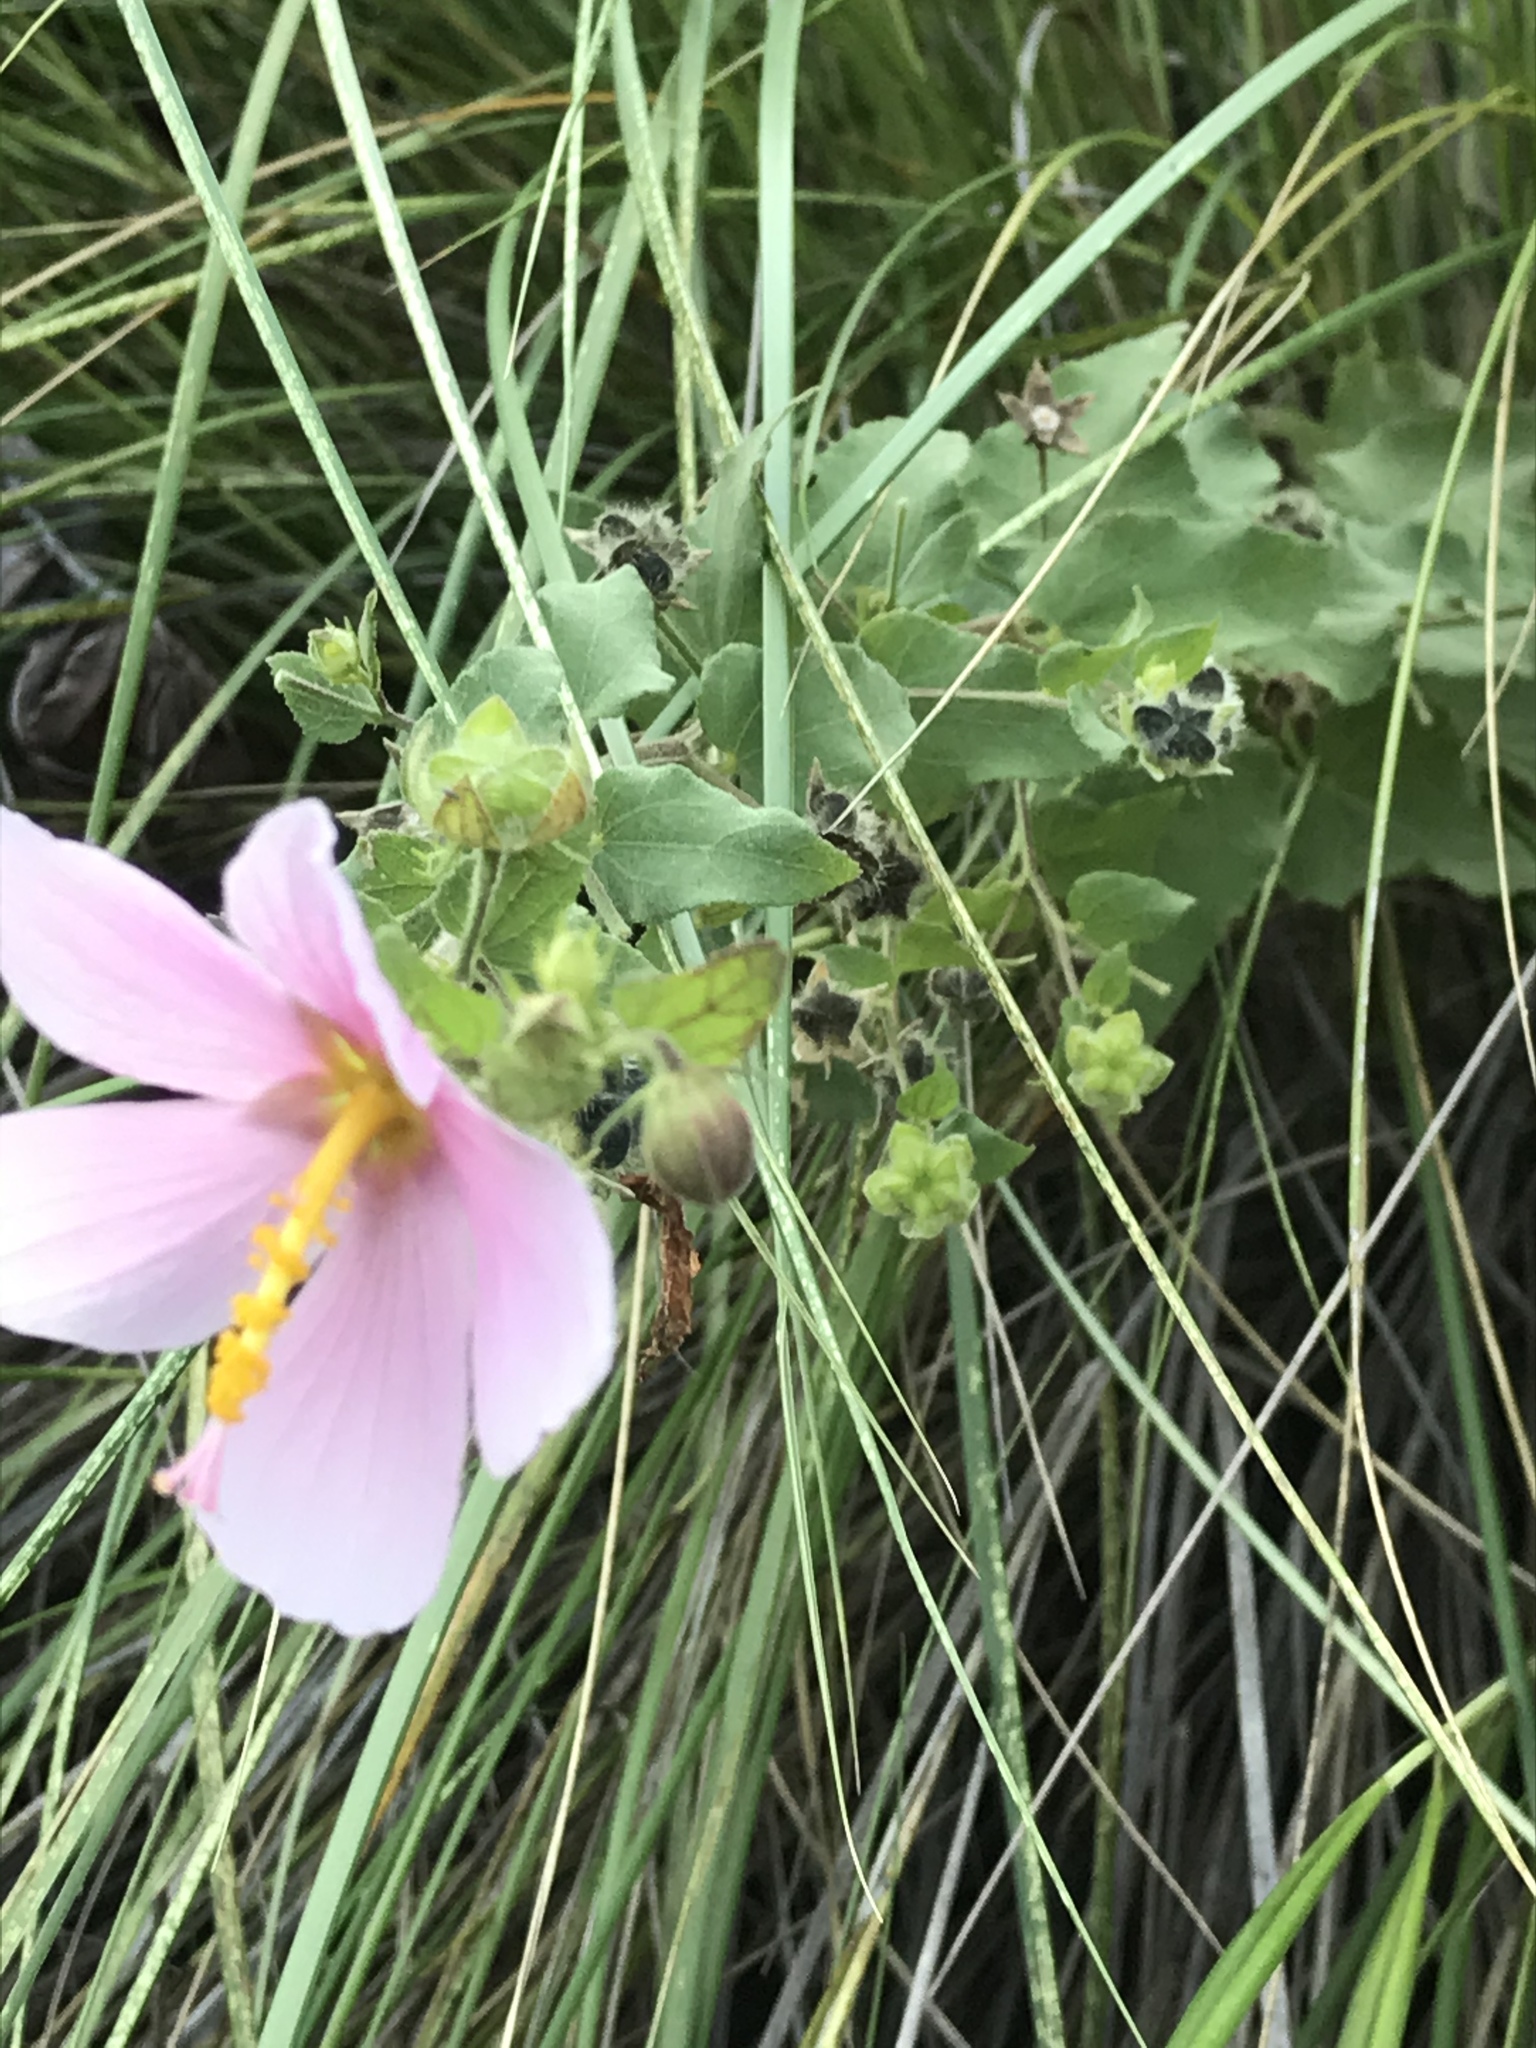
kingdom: Plantae
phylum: Tracheophyta
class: Magnoliopsida
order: Malvales
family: Malvaceae
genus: Kosteletzkya
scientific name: Kosteletzkya pentacarpos
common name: Virginia saltmarsh mallow
